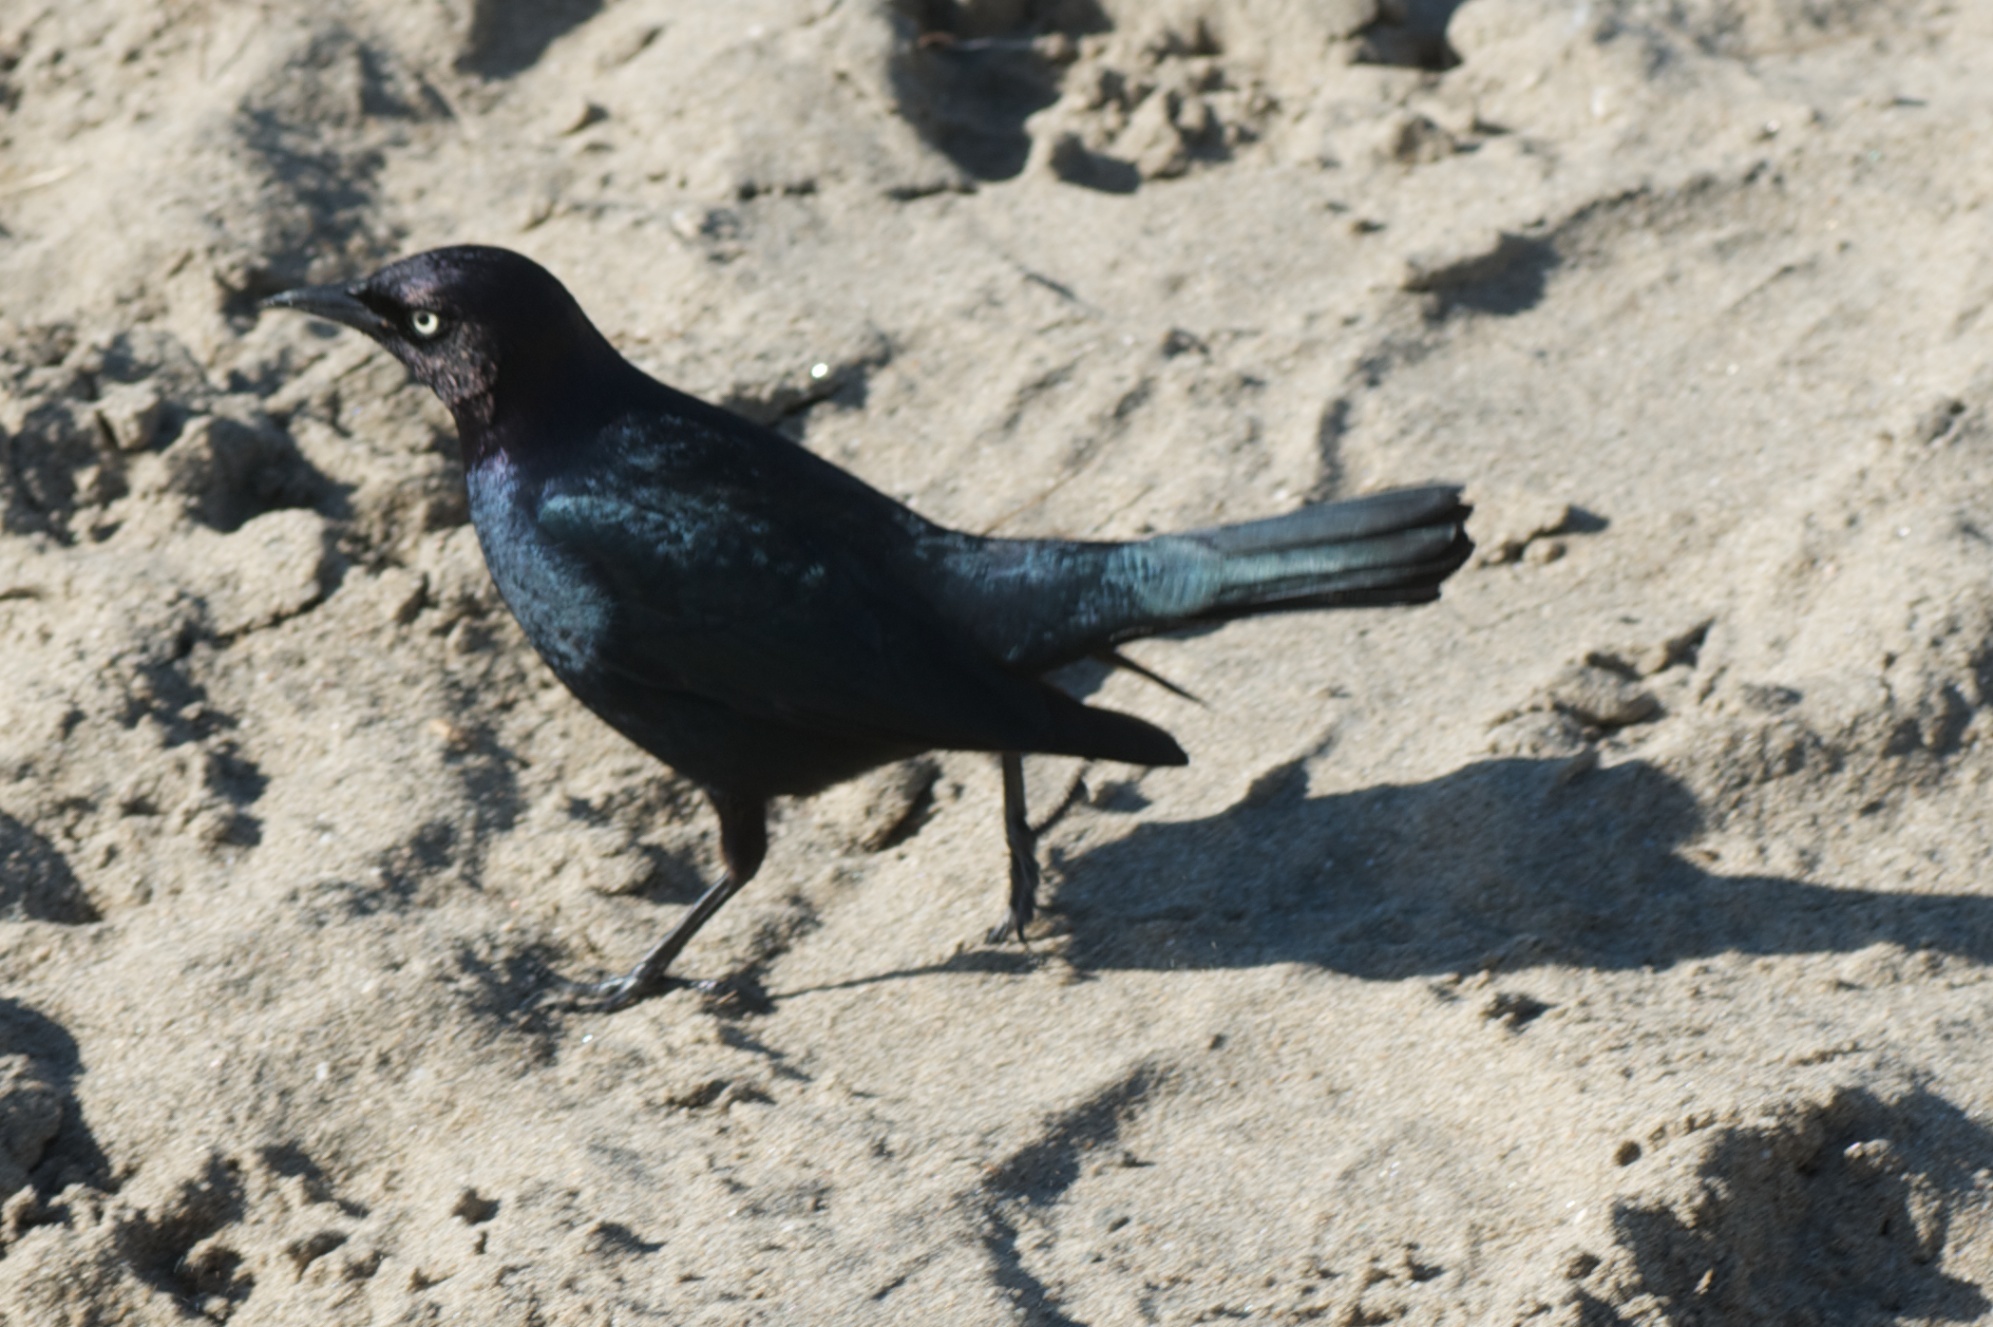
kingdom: Animalia
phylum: Chordata
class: Aves
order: Passeriformes
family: Icteridae
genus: Euphagus
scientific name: Euphagus cyanocephalus
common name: Brewer's blackbird
